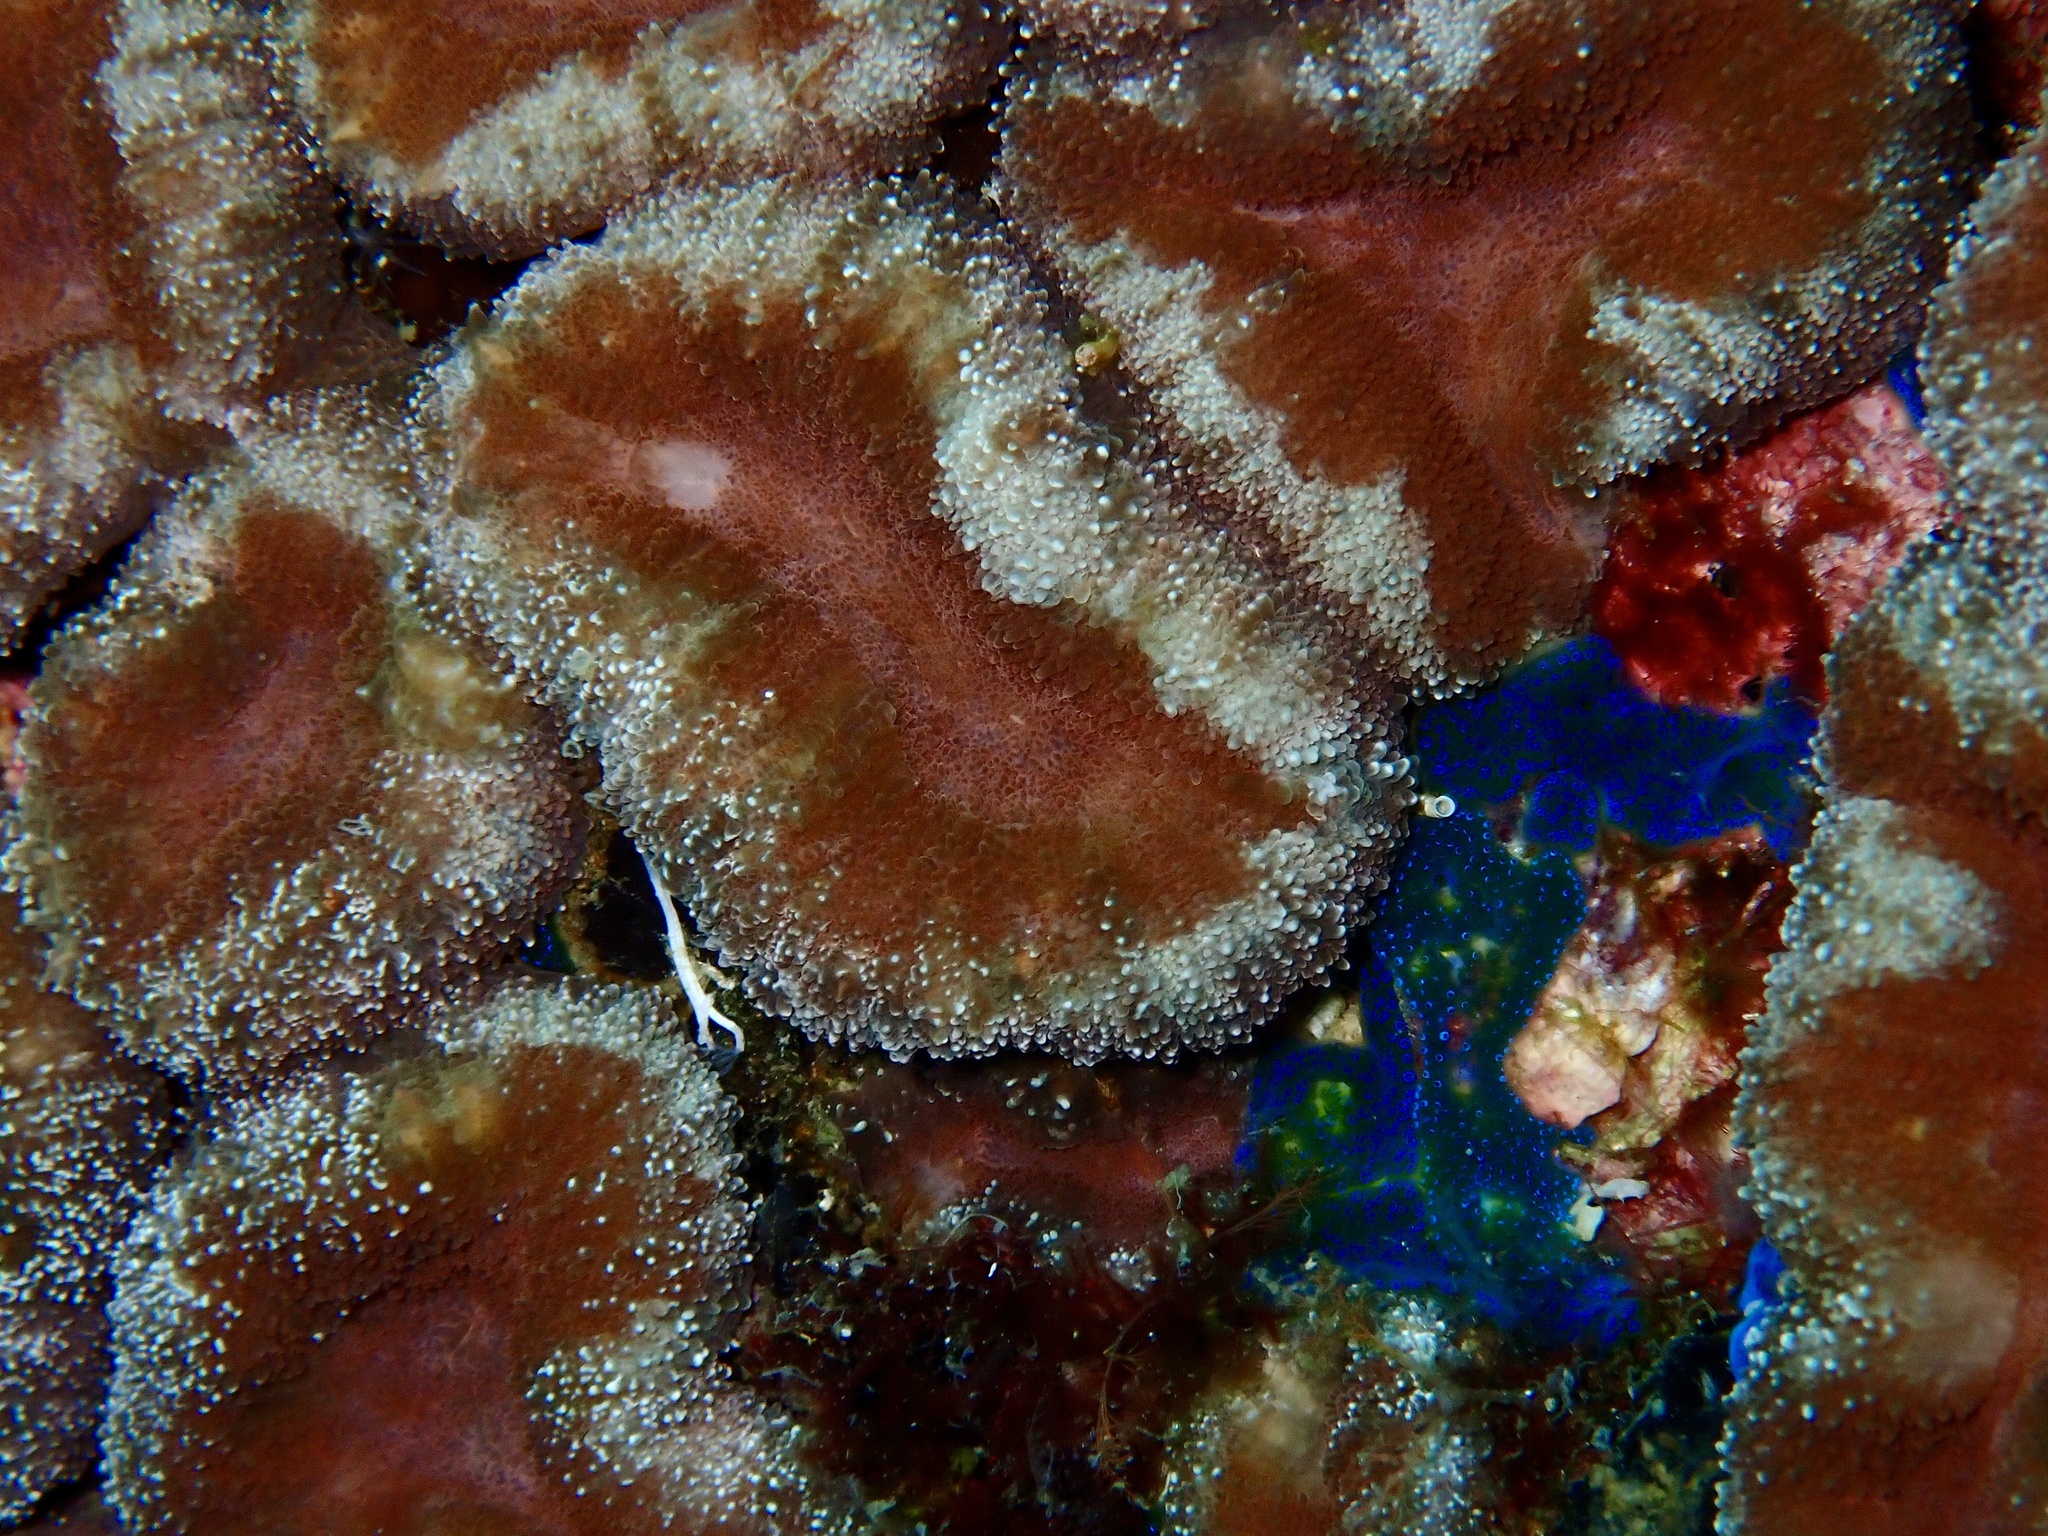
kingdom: Animalia
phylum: Cnidaria
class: Anthozoa
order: Scleractinia
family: Lobophylliidae
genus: Lobophyllia
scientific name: Lobophyllia hemprichii
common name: Lobed cactus coral
